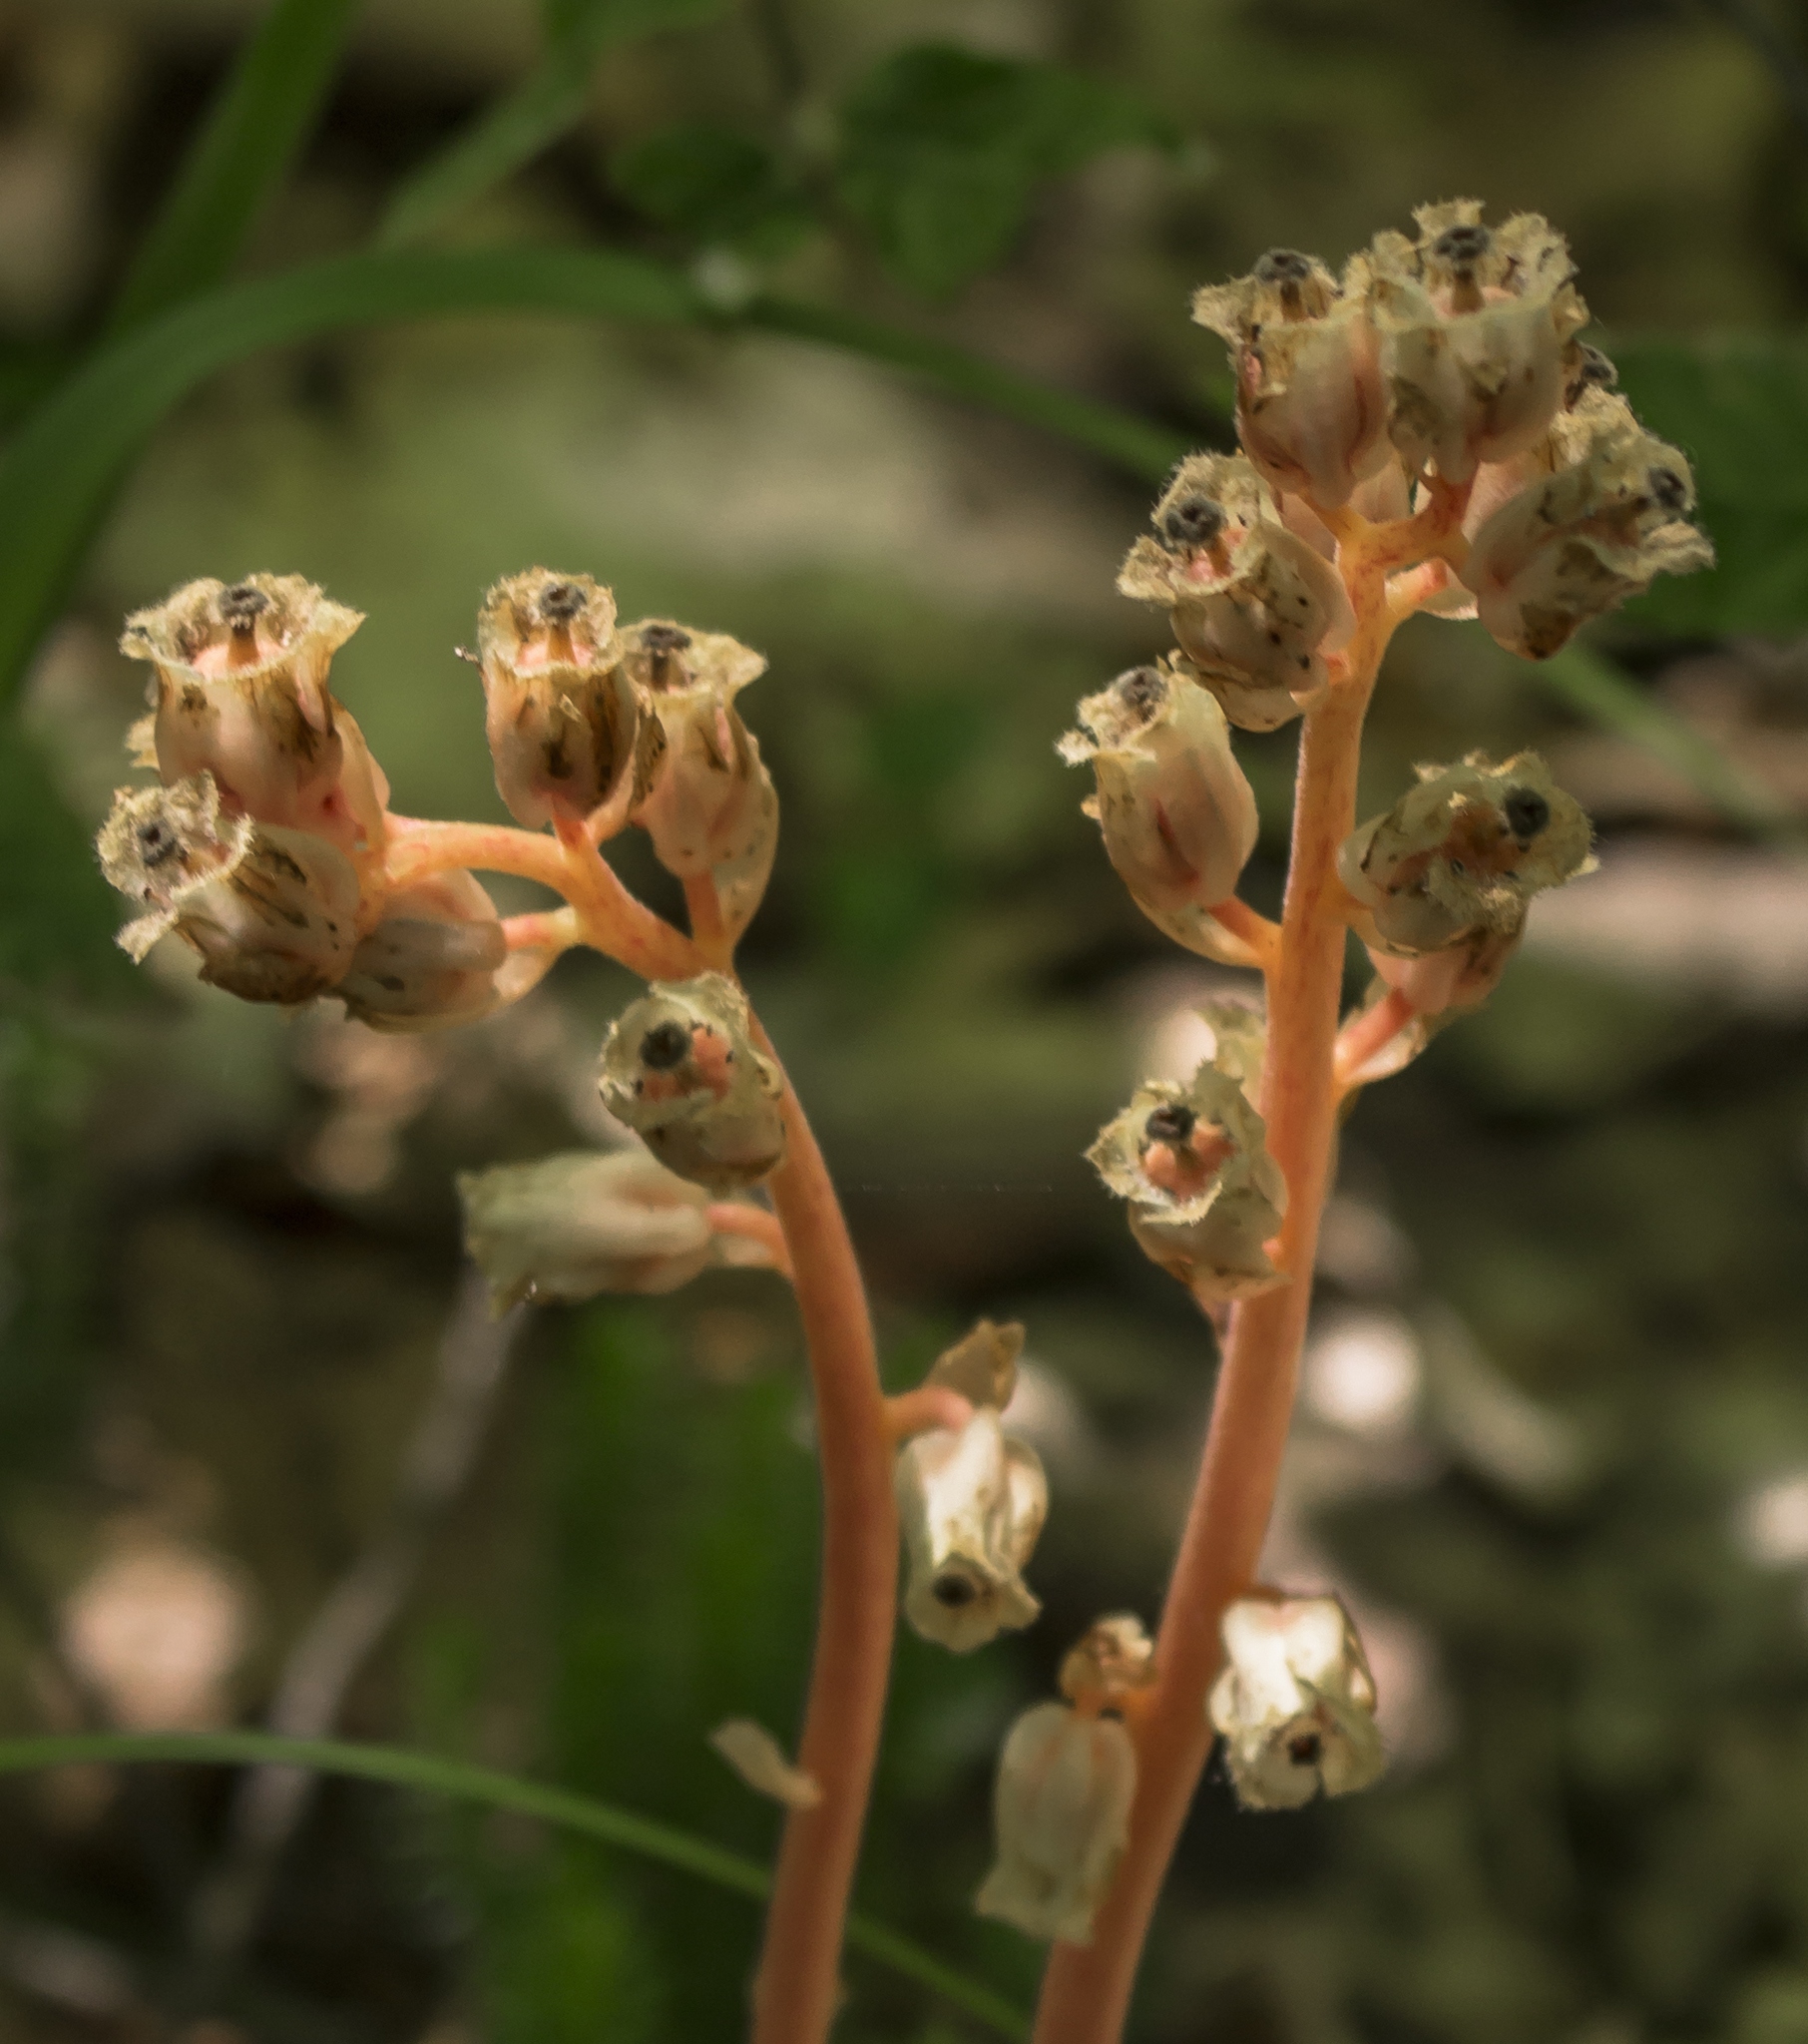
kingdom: Plantae
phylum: Tracheophyta
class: Magnoliopsida
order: Ericales
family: Ericaceae
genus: Hypopitys
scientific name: Hypopitys monotropa
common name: Yellow bird's-nest
